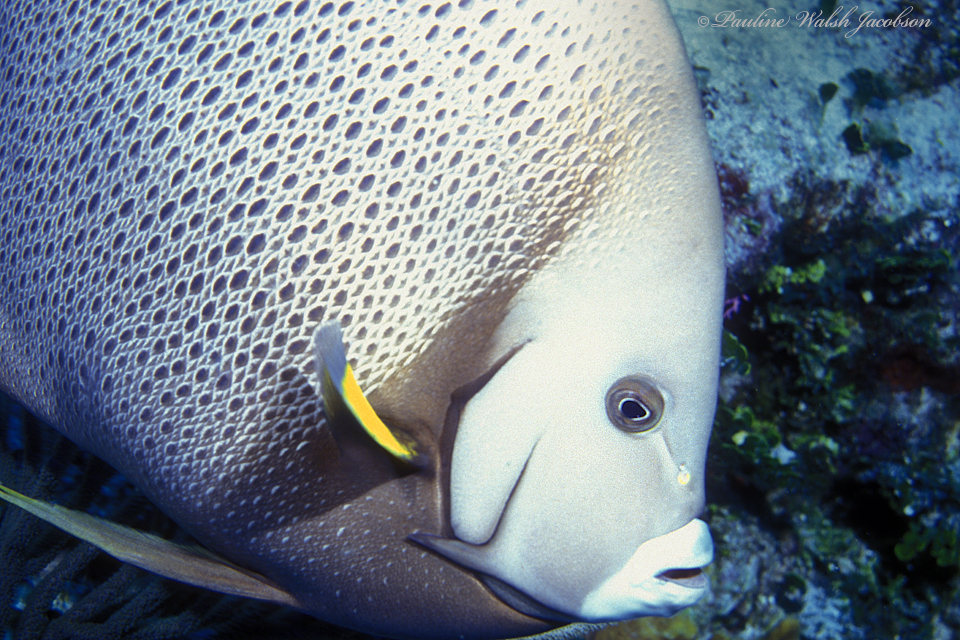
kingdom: Animalia
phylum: Chordata
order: Perciformes
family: Pomacanthidae
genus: Pomacanthus
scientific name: Pomacanthus arcuatus
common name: Gray angelfish
